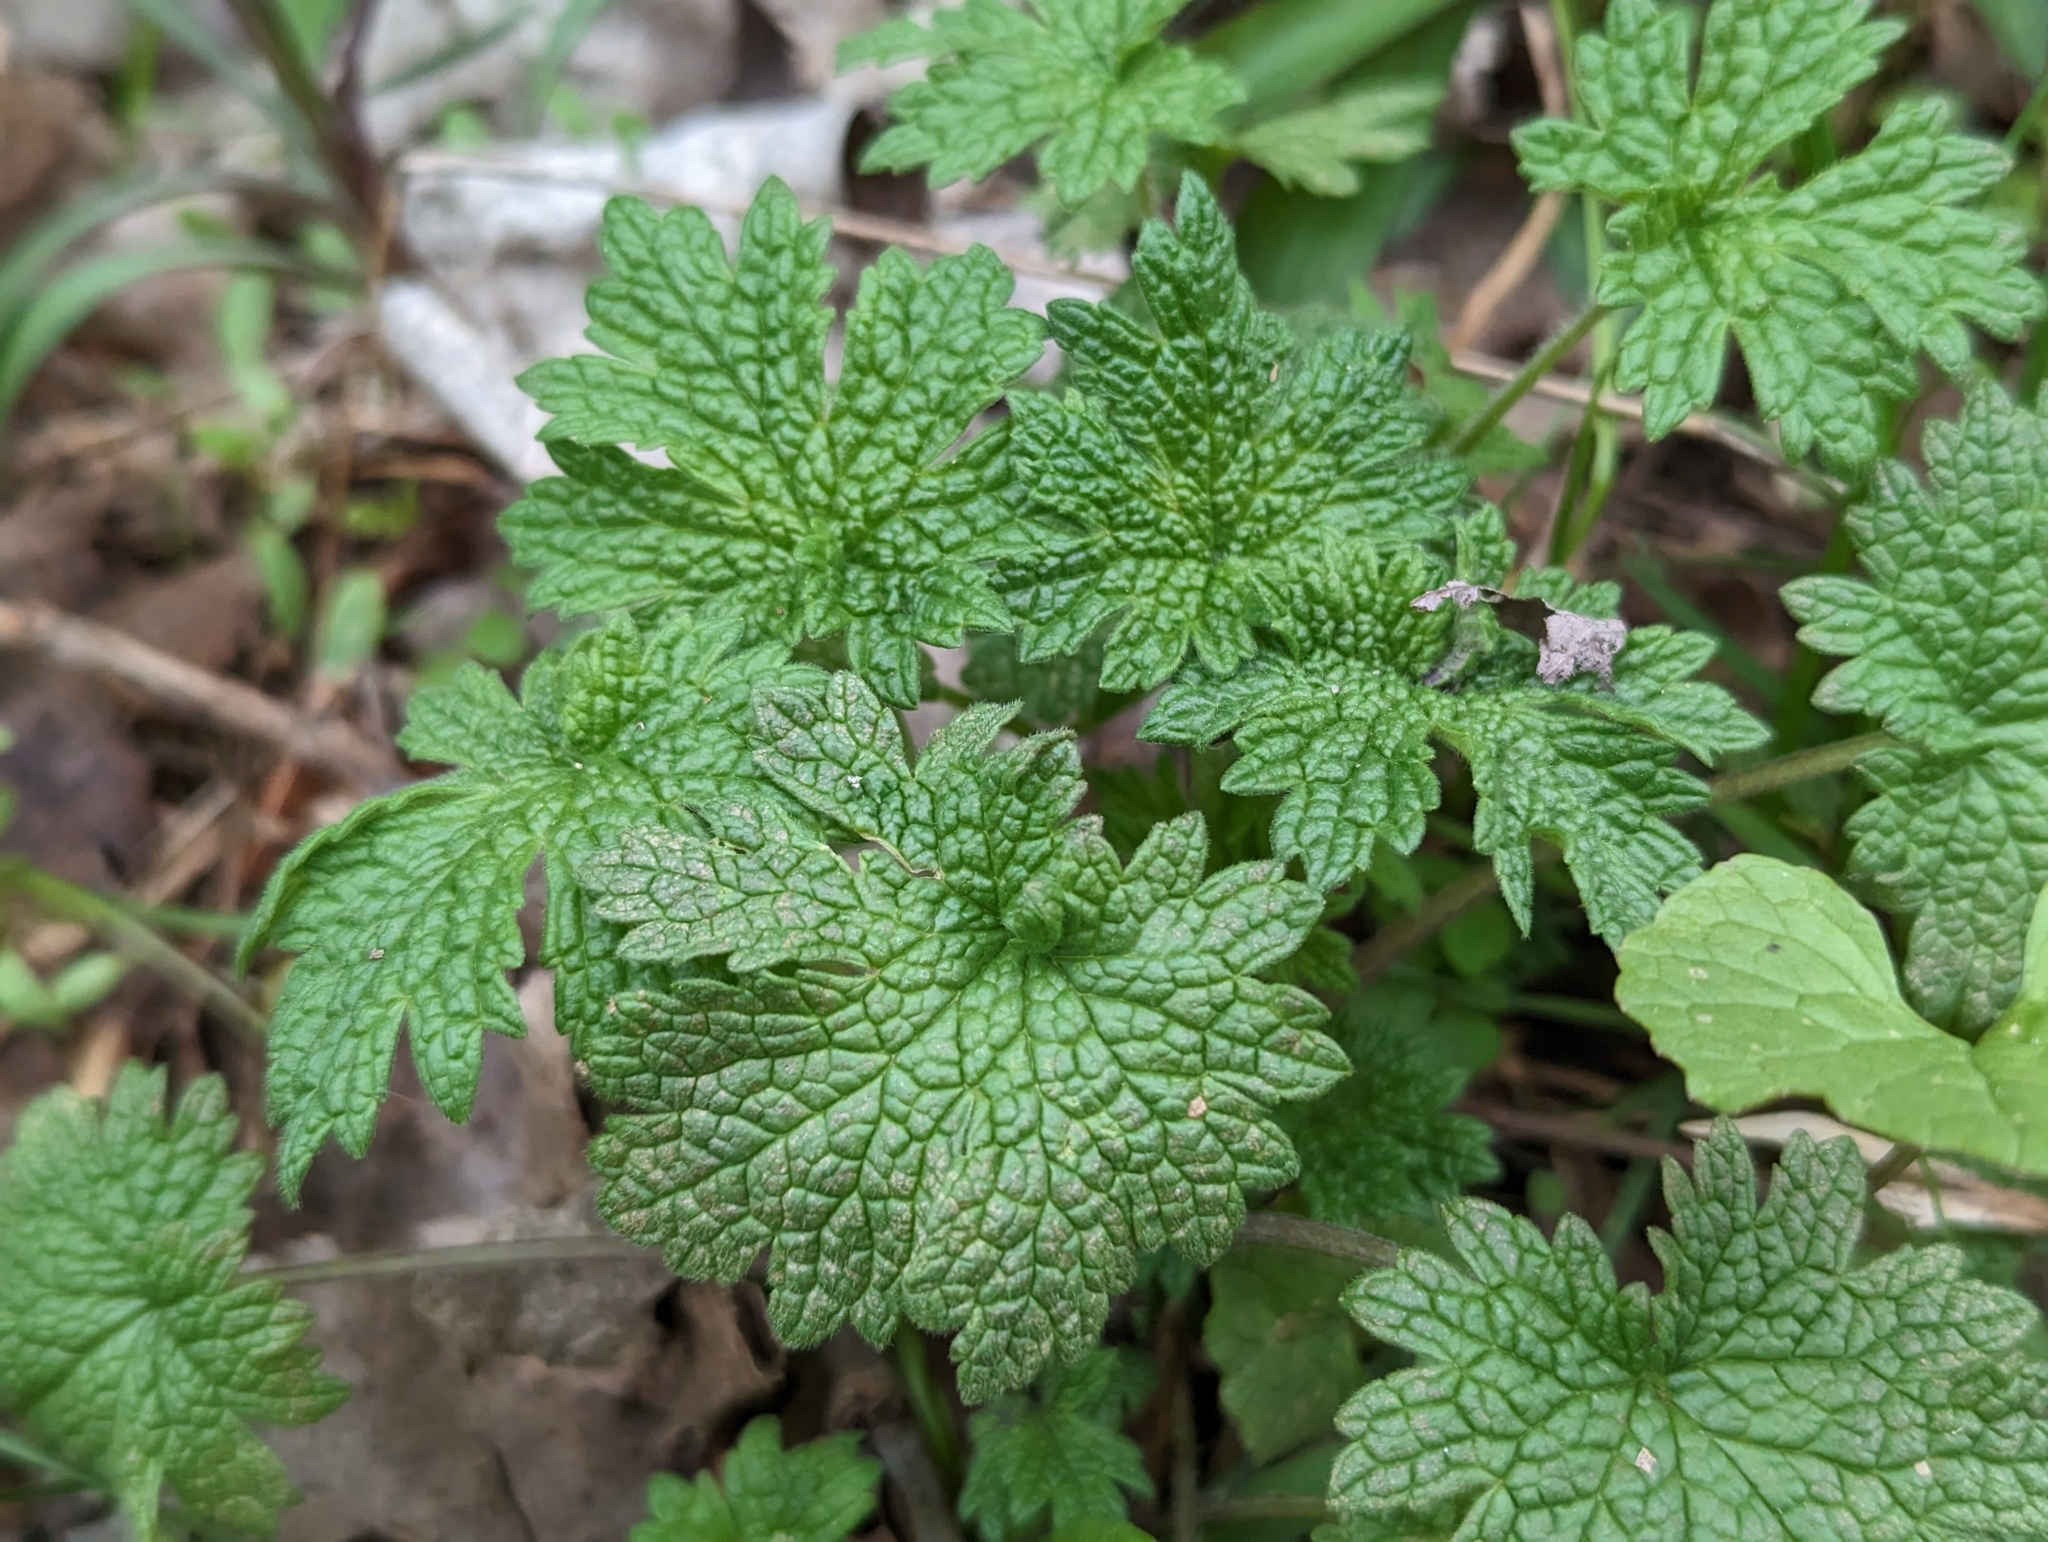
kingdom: Plantae
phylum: Tracheophyta
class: Magnoliopsida
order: Lamiales
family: Lamiaceae
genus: Leonurus
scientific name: Leonurus cardiaca
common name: Motherwort
